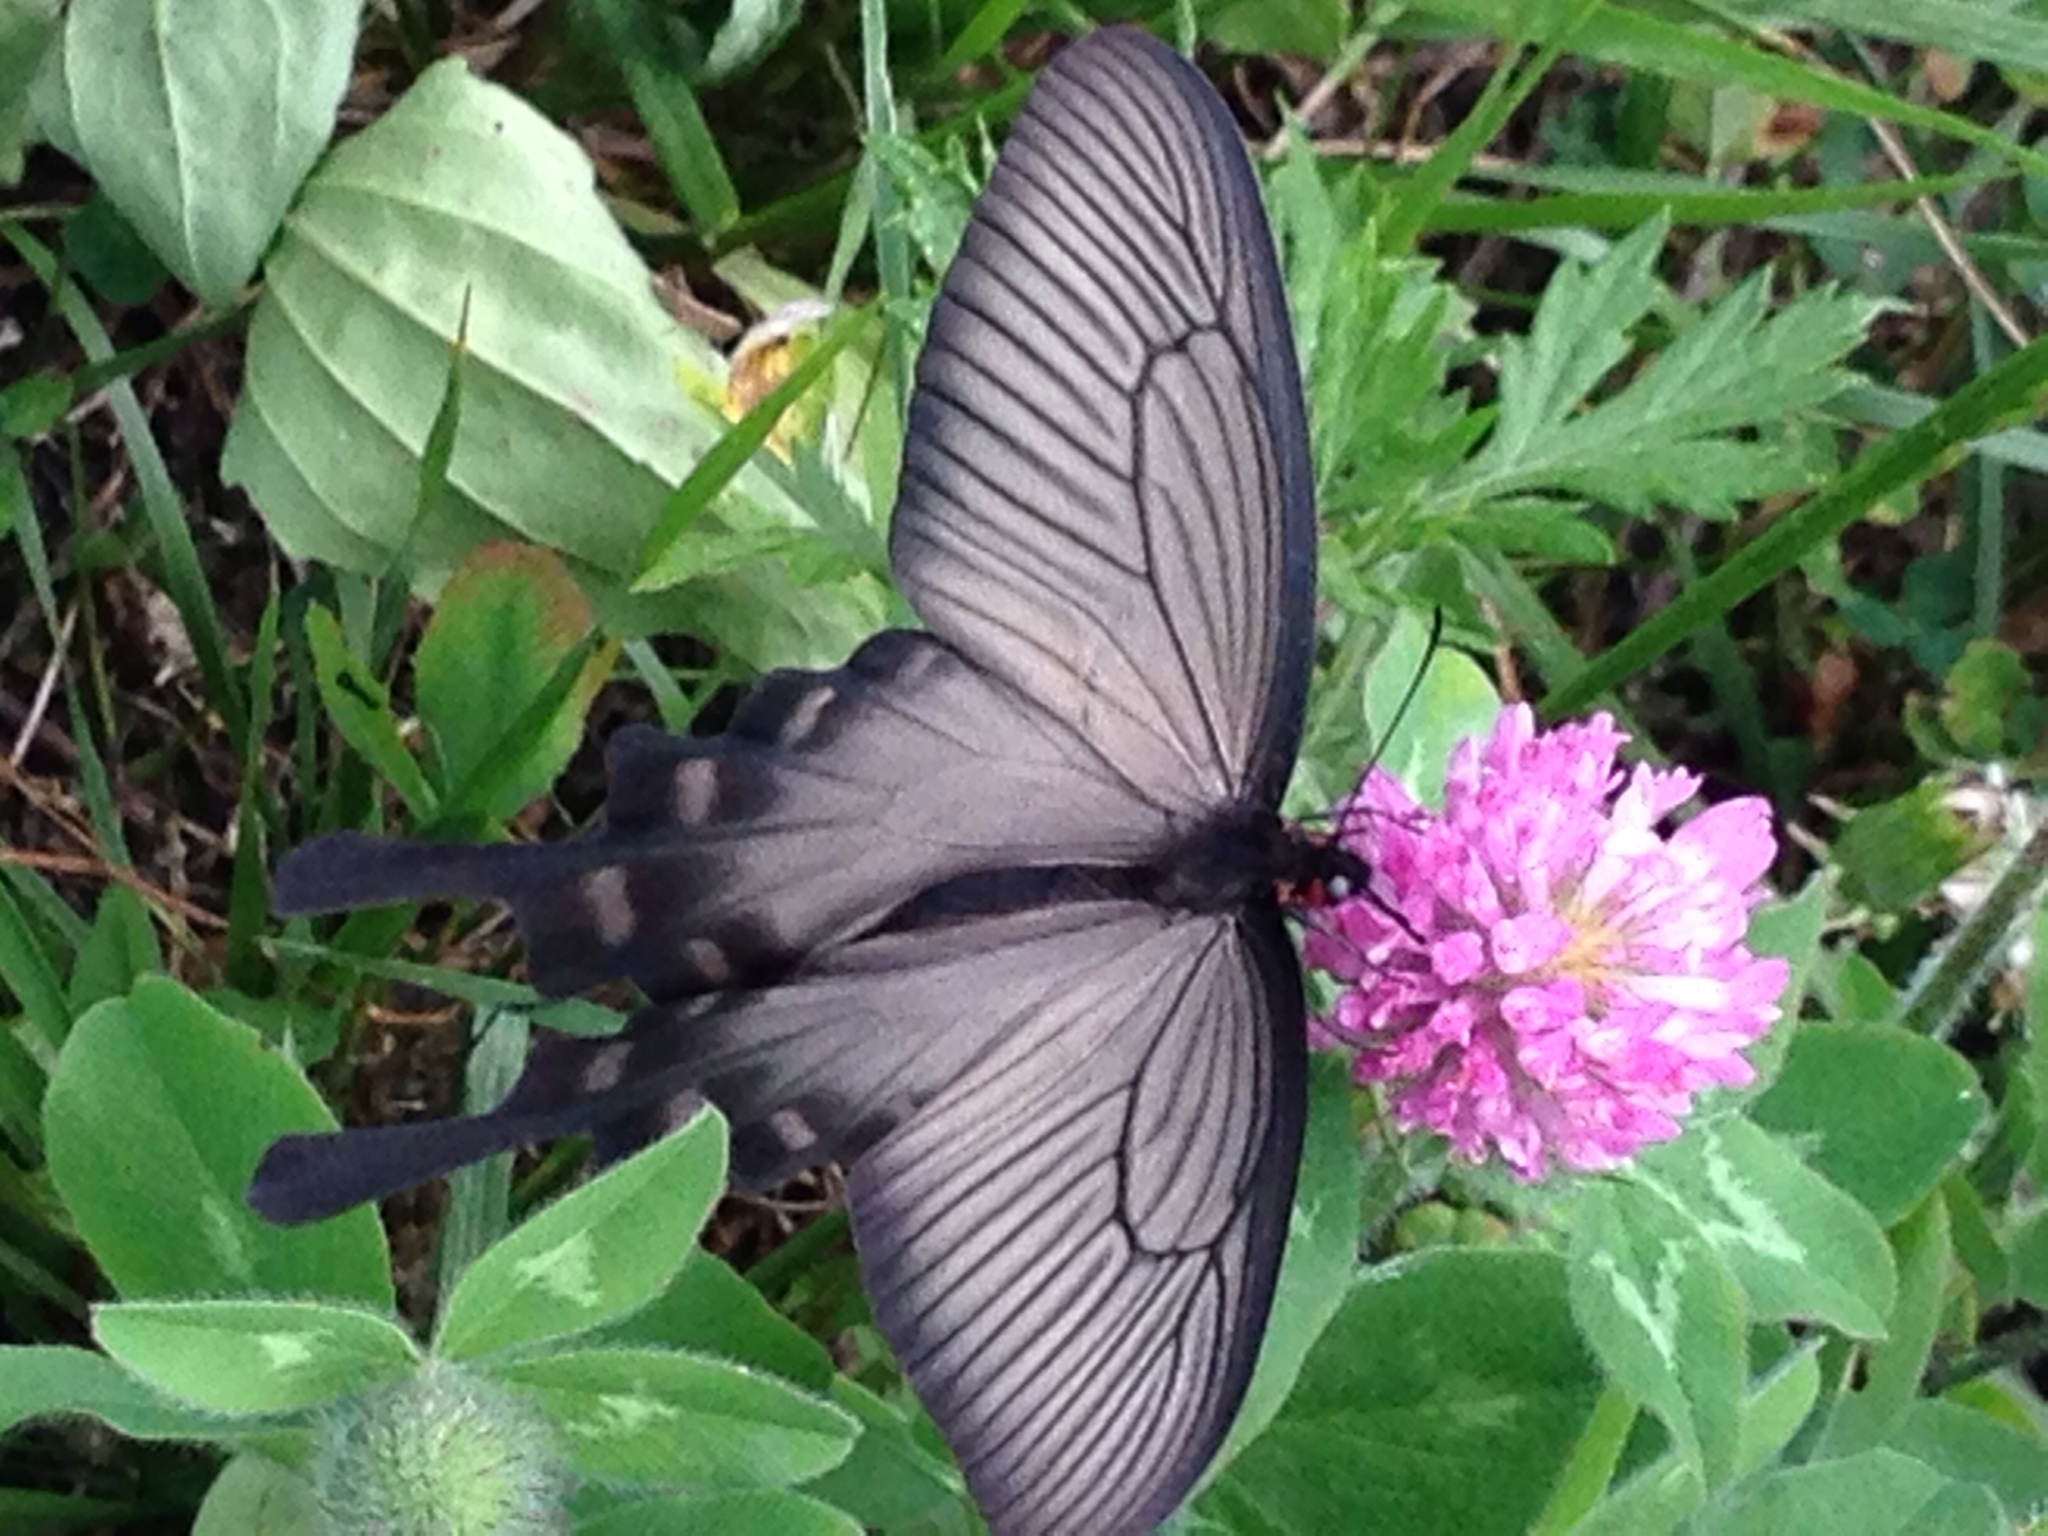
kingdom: Animalia
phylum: Arthropoda
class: Insecta
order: Lepidoptera
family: Papilionidae
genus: Byasa
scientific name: Byasa alcinous
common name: Chinese windmill
